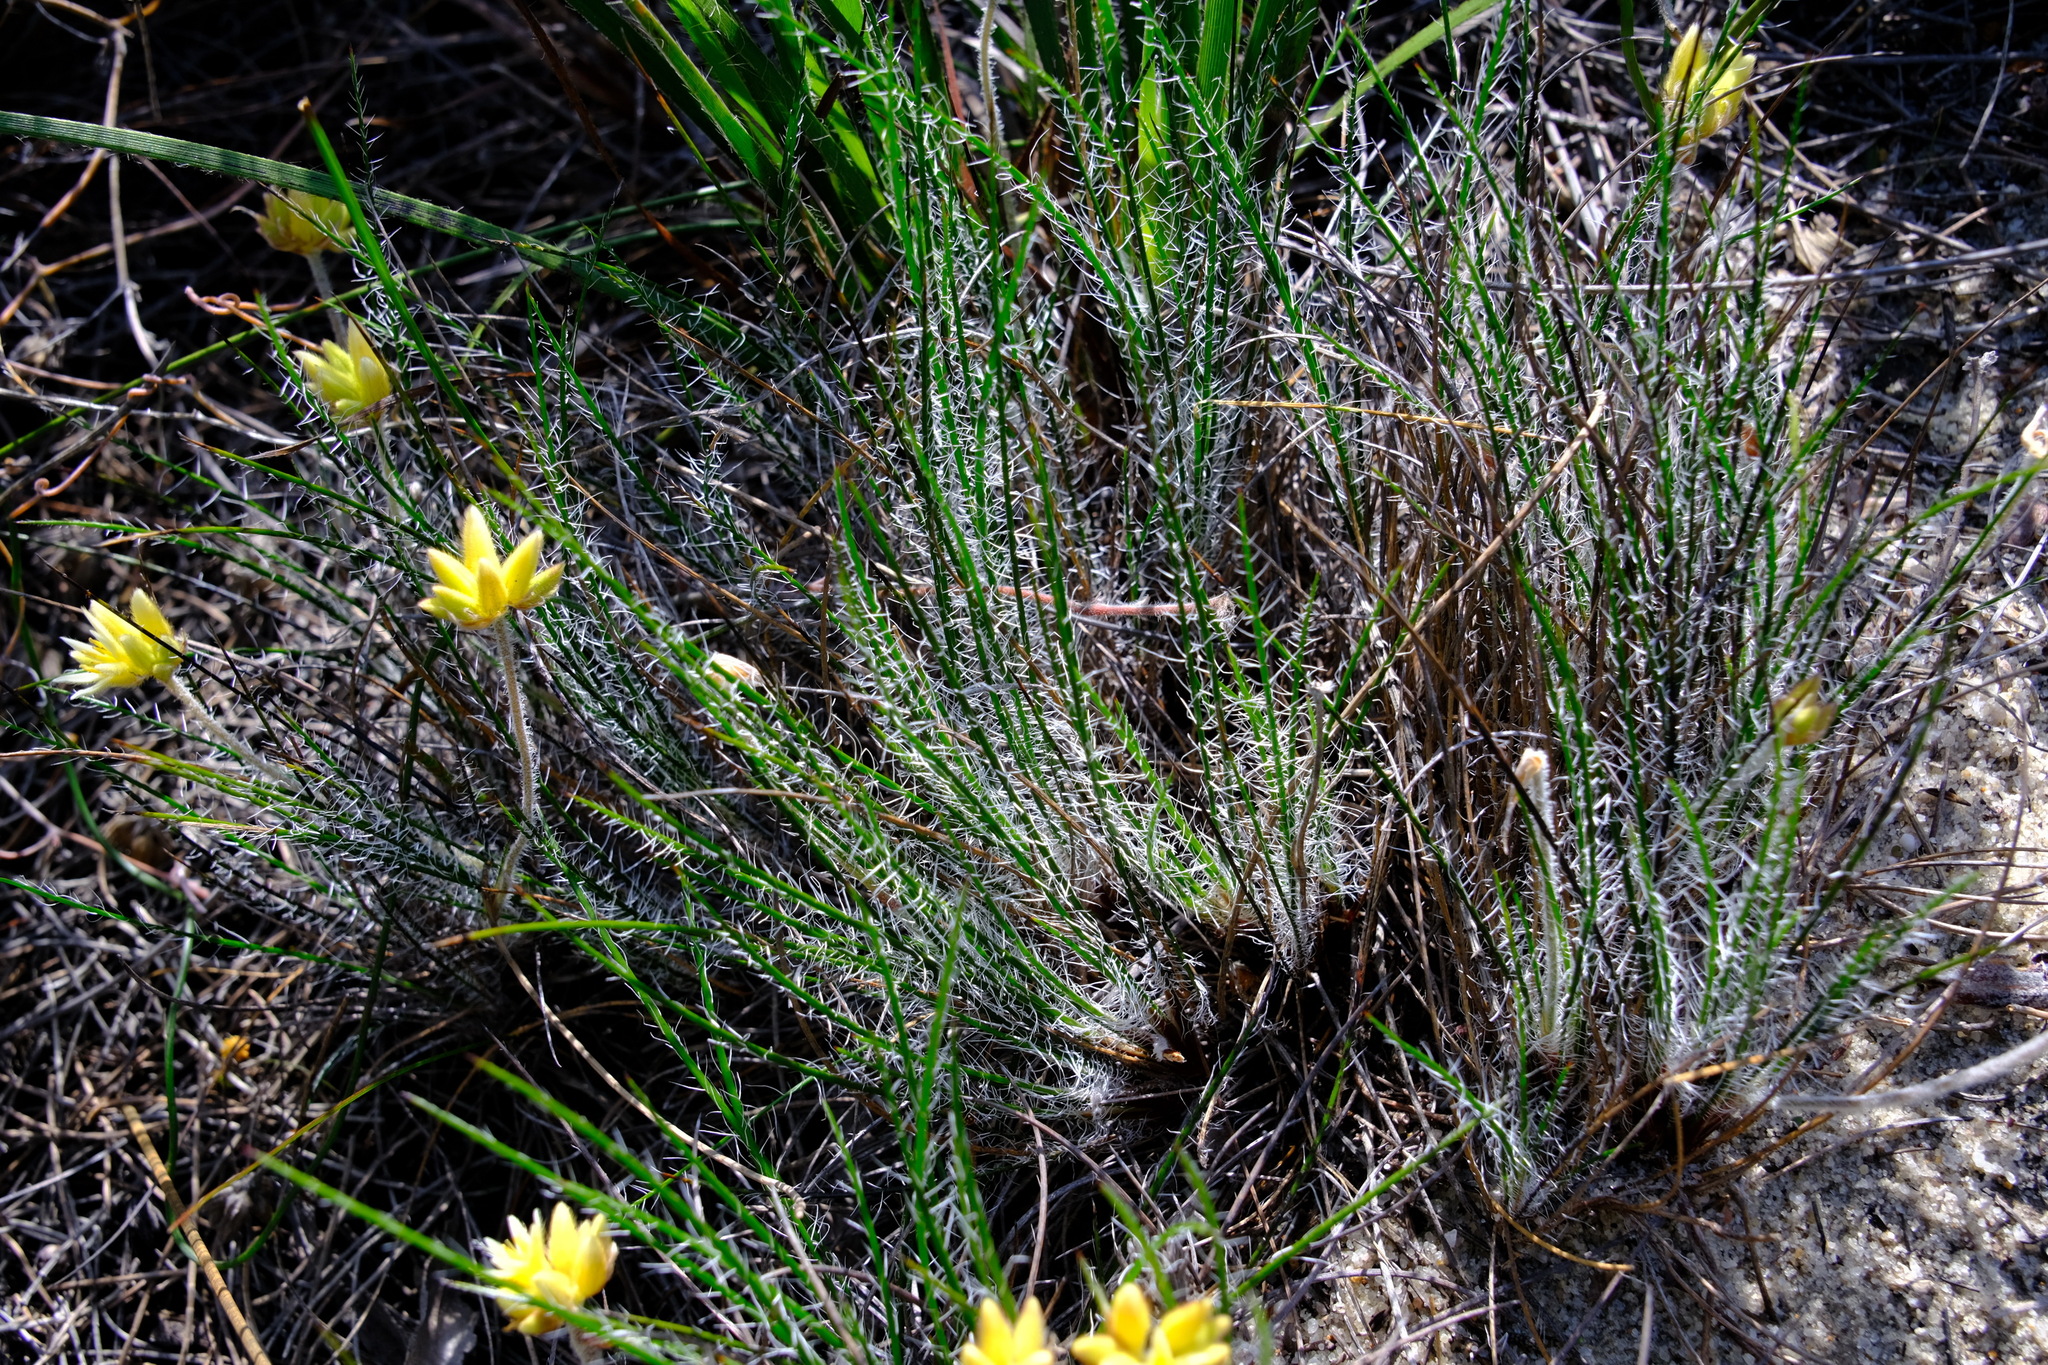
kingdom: Plantae
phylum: Tracheophyta
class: Liliopsida
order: Commelinales
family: Haemodoraceae
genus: Conostylis
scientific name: Conostylis teretifolia
